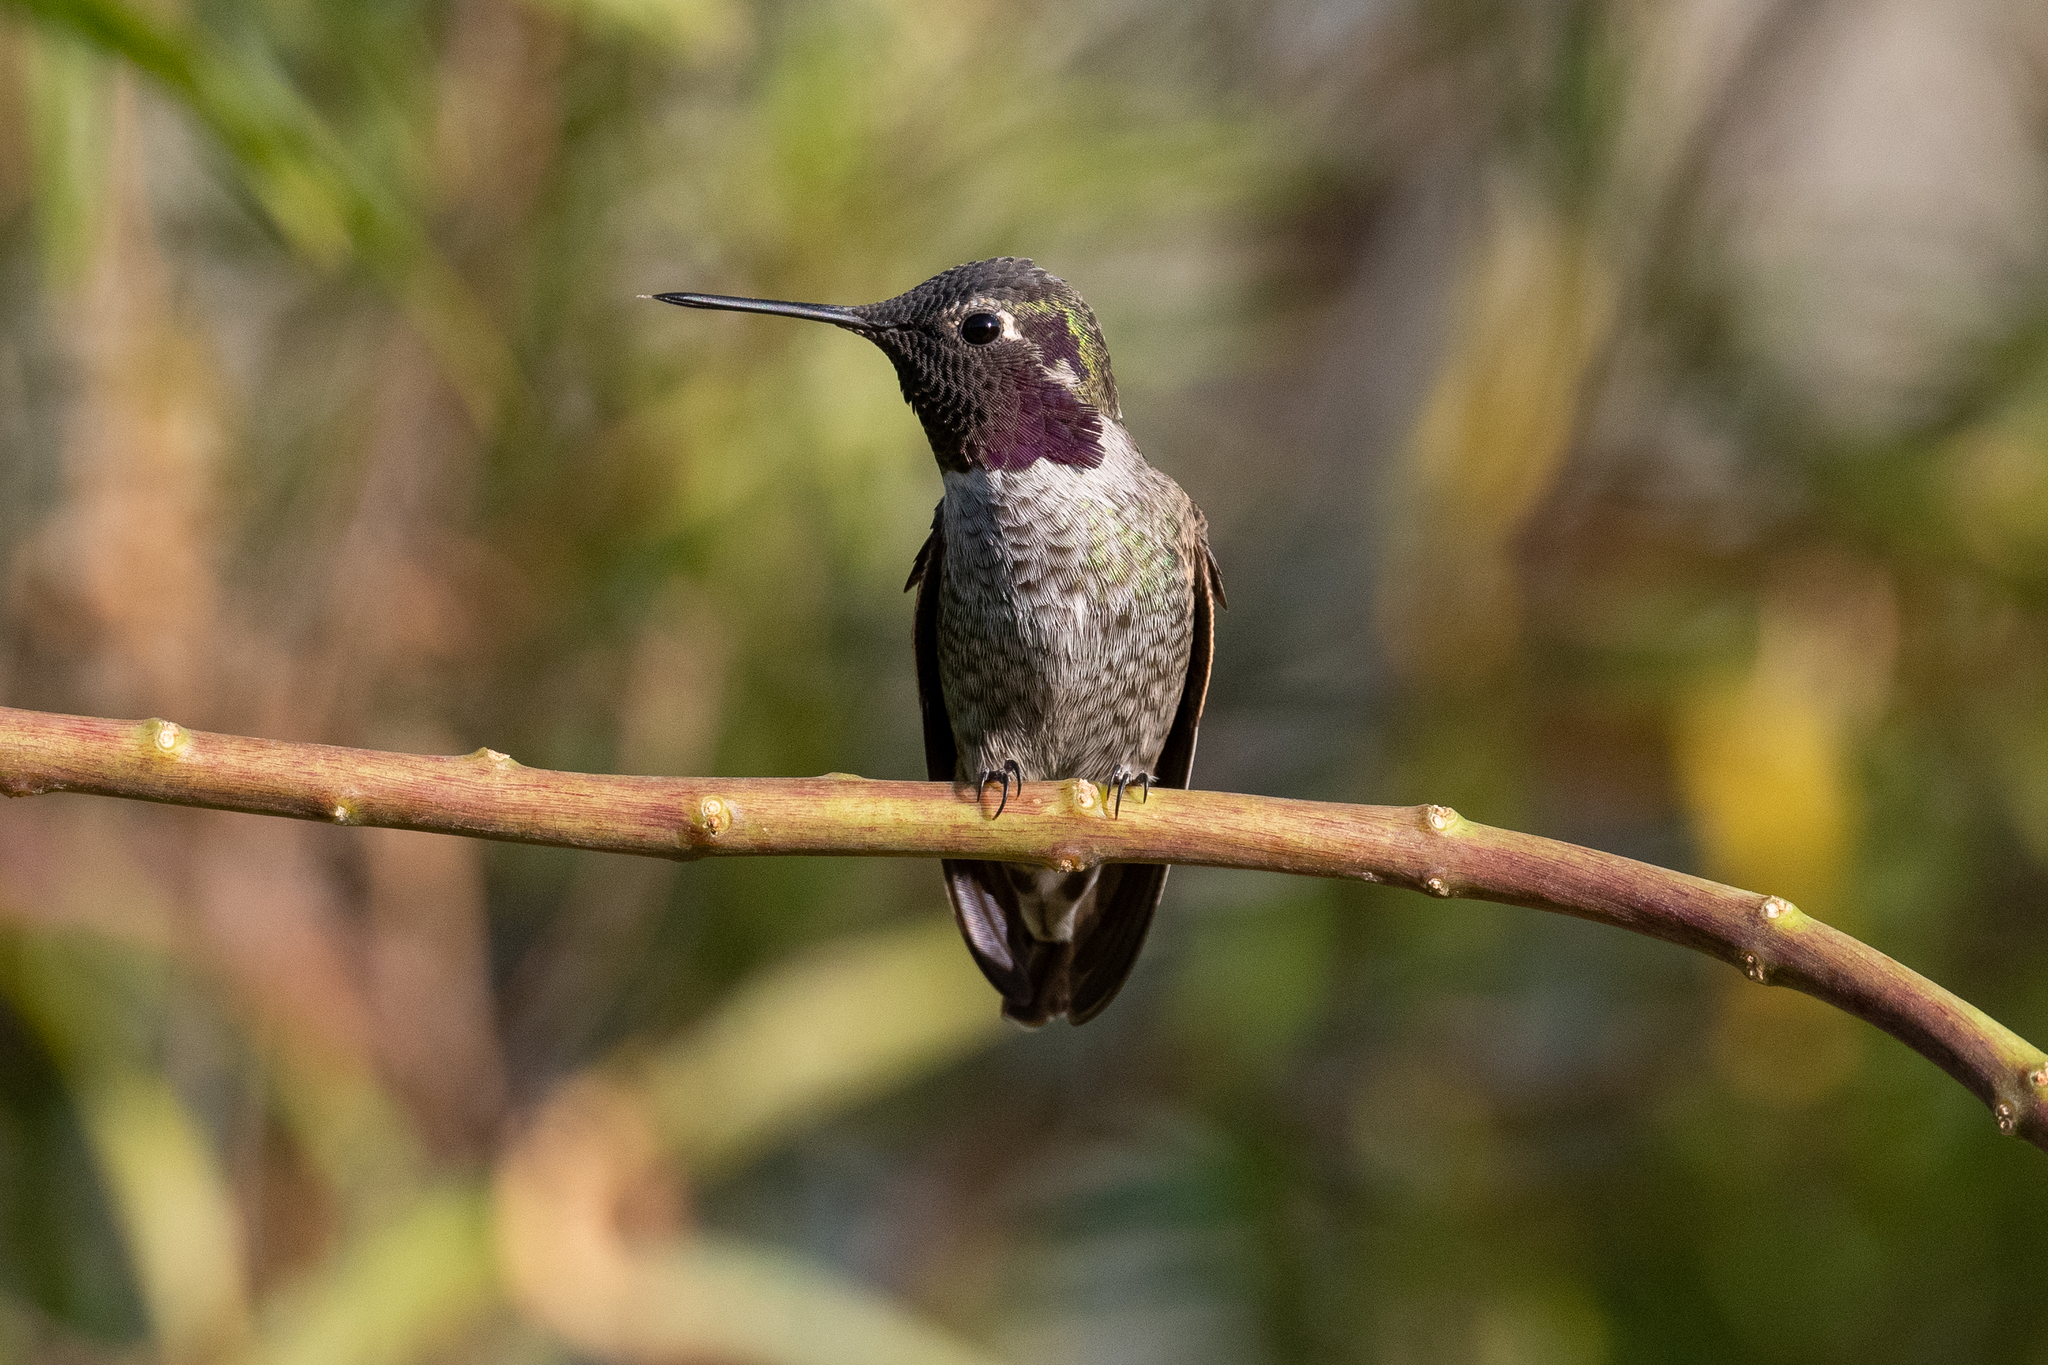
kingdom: Animalia
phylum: Chordata
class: Aves
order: Apodiformes
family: Trochilidae
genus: Calypte
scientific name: Calypte anna
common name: Anna's hummingbird
